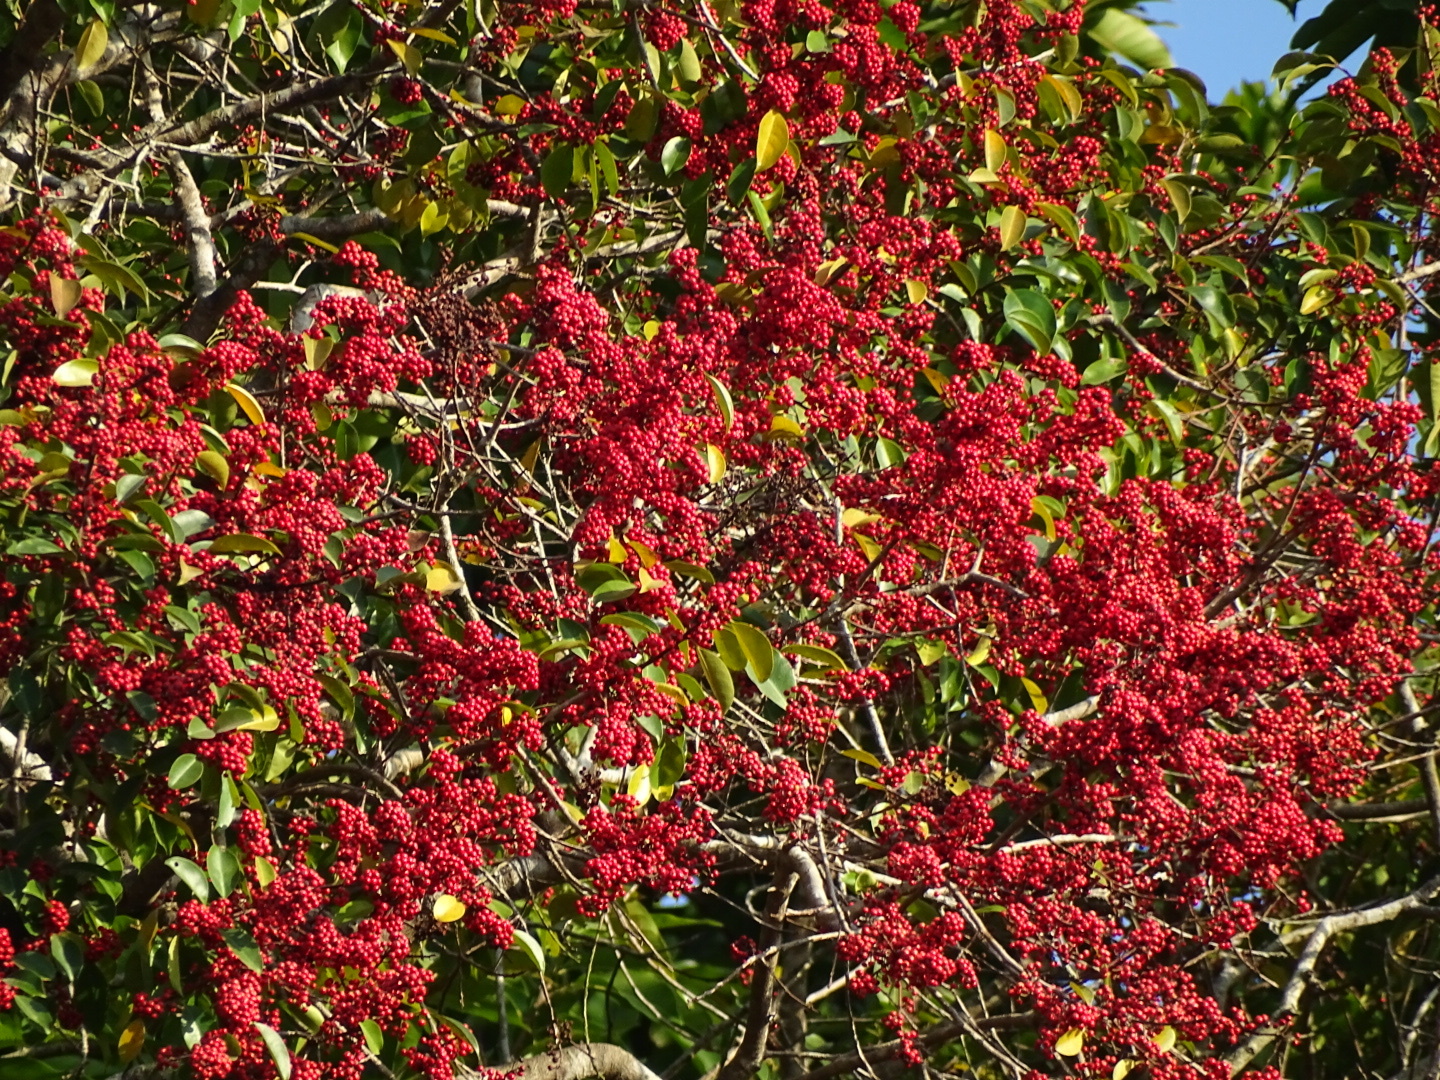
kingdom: Plantae
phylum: Tracheophyta
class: Magnoliopsida
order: Aquifoliales
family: Aquifoliaceae
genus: Ilex
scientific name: Ilex rotunda
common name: Kurogane holly
